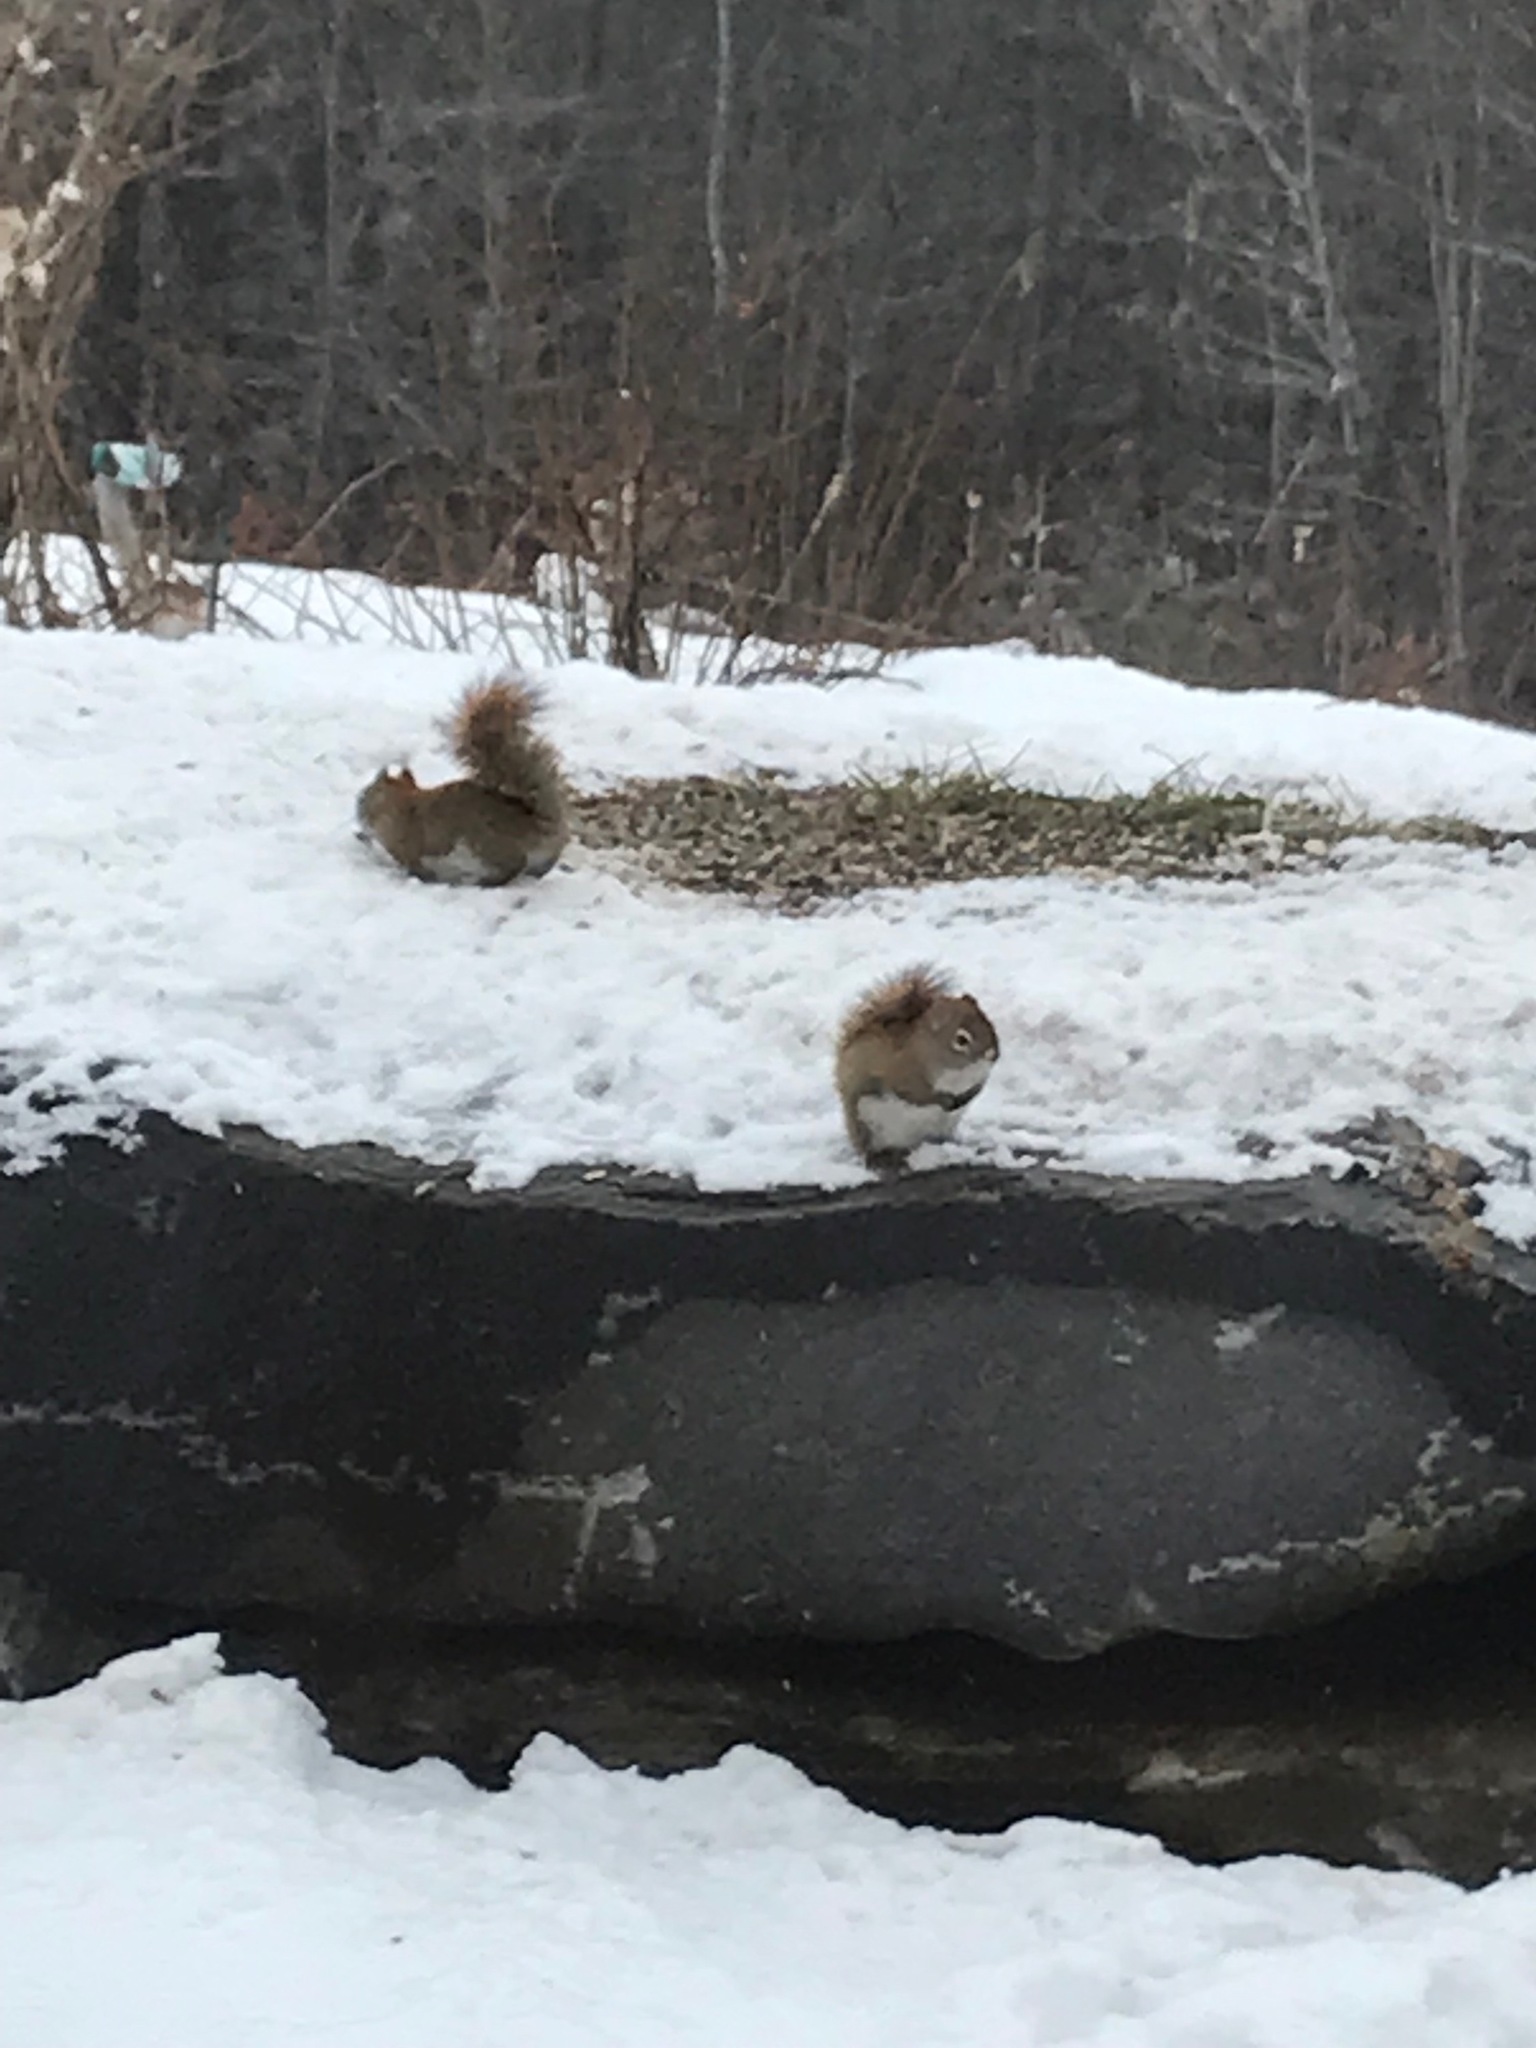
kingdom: Animalia
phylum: Chordata
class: Mammalia
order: Rodentia
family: Sciuridae
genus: Tamiasciurus
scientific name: Tamiasciurus hudsonicus
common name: Red squirrel
